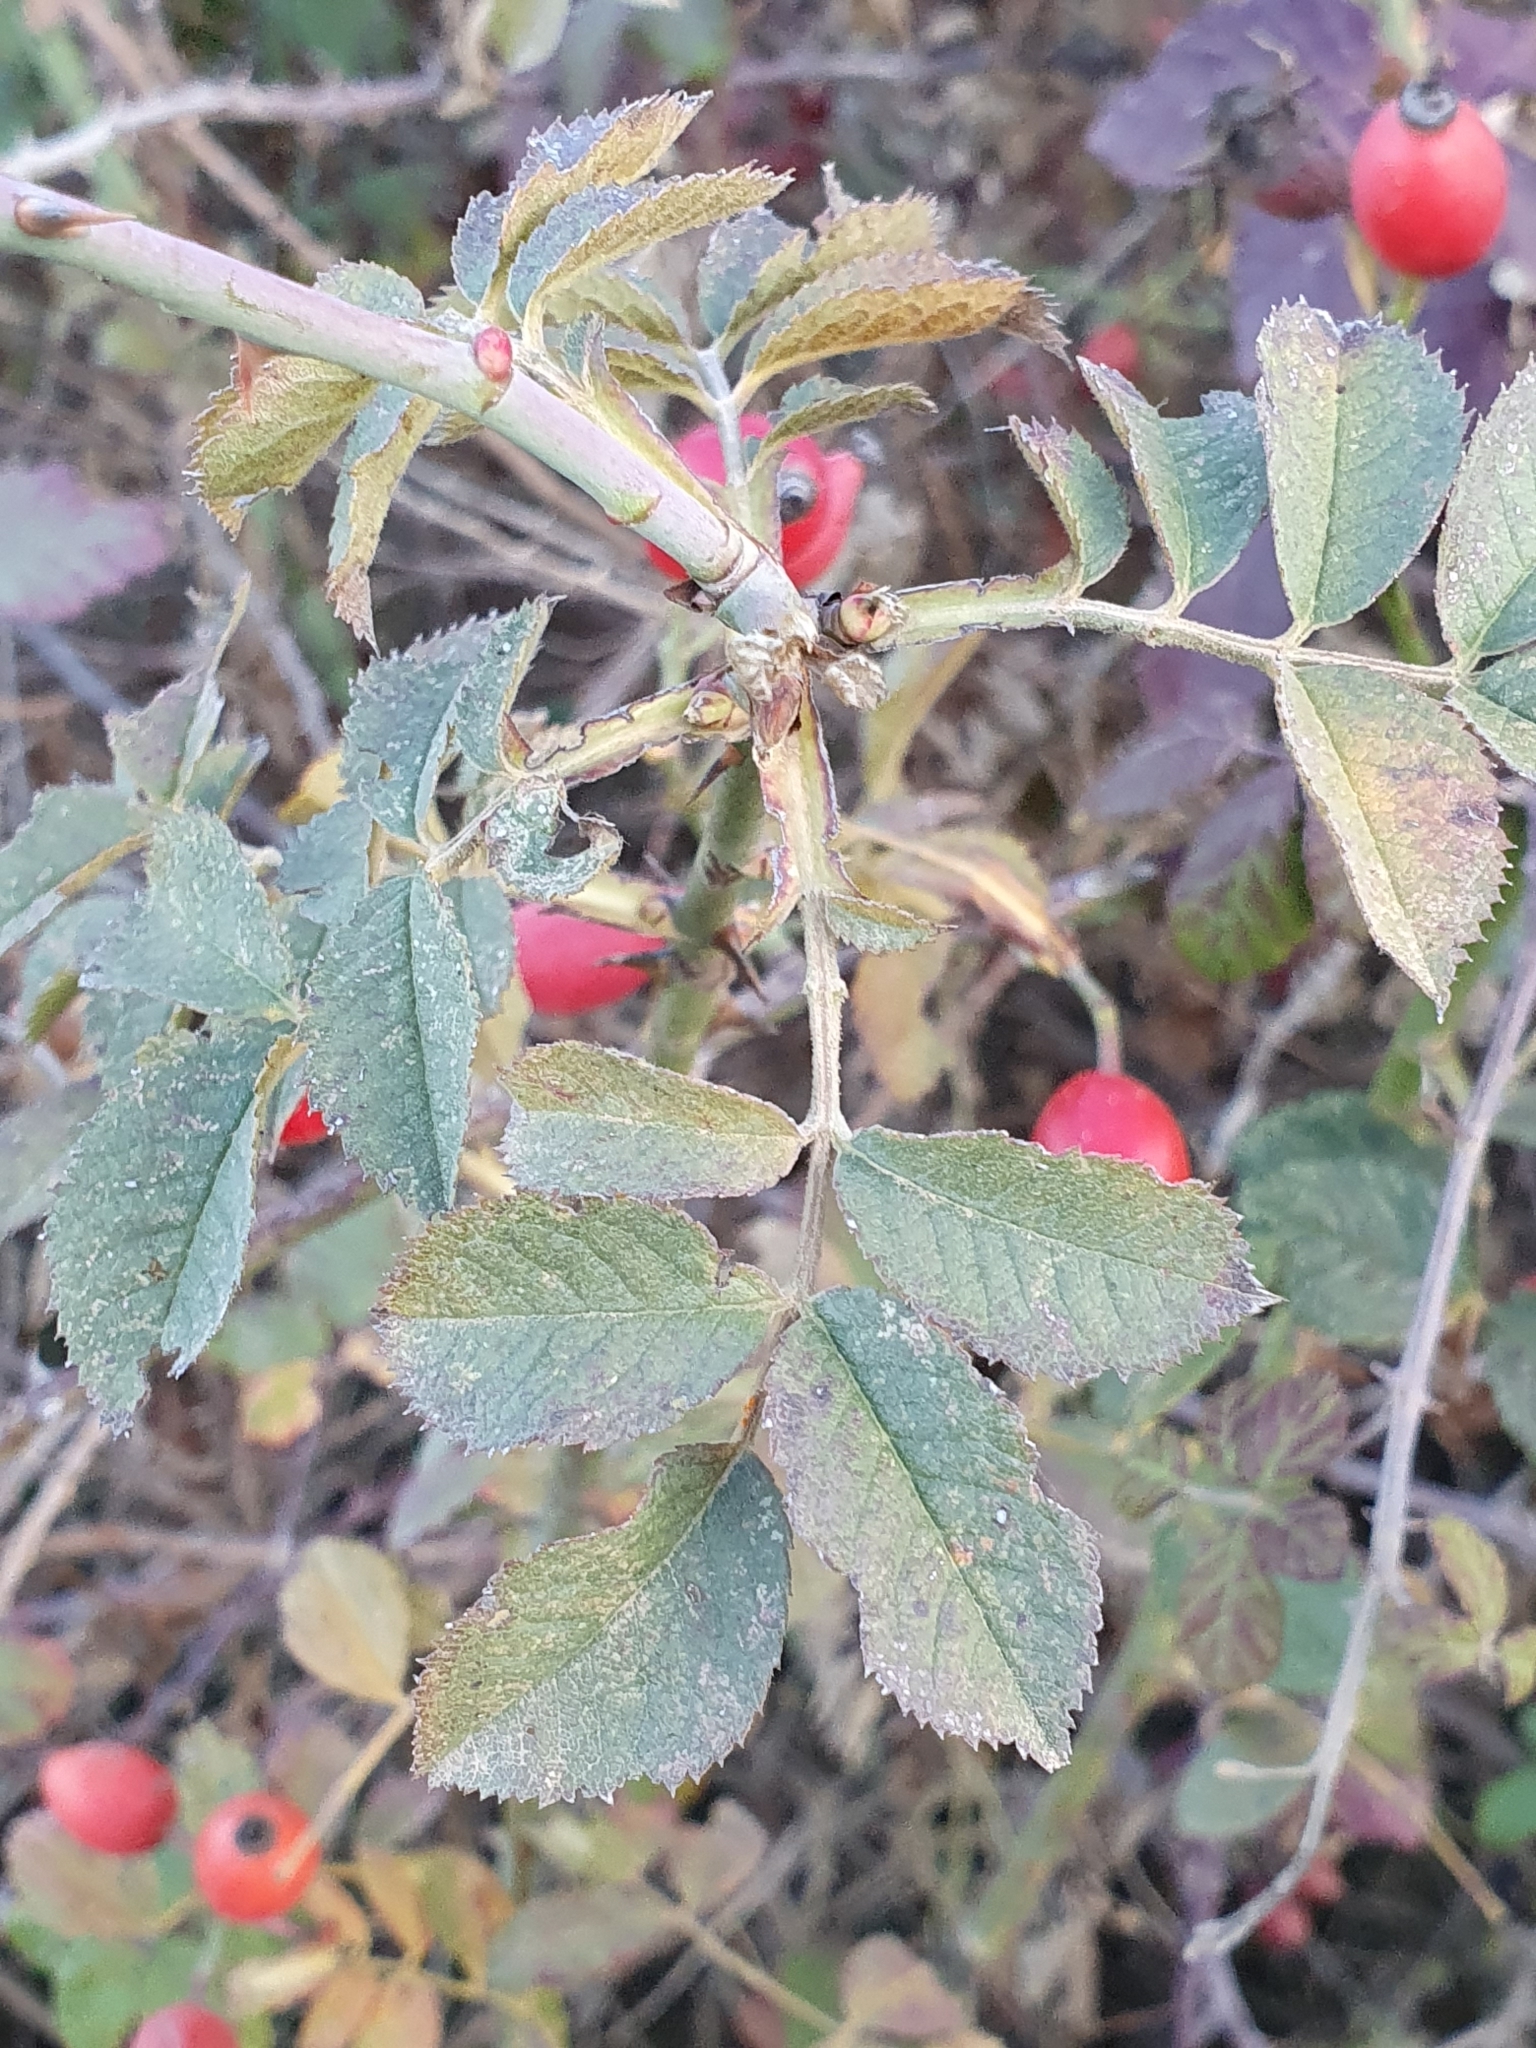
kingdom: Plantae
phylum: Tracheophyta
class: Magnoliopsida
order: Rosales
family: Rosaceae
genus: Rosa
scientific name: Rosa dumalis
